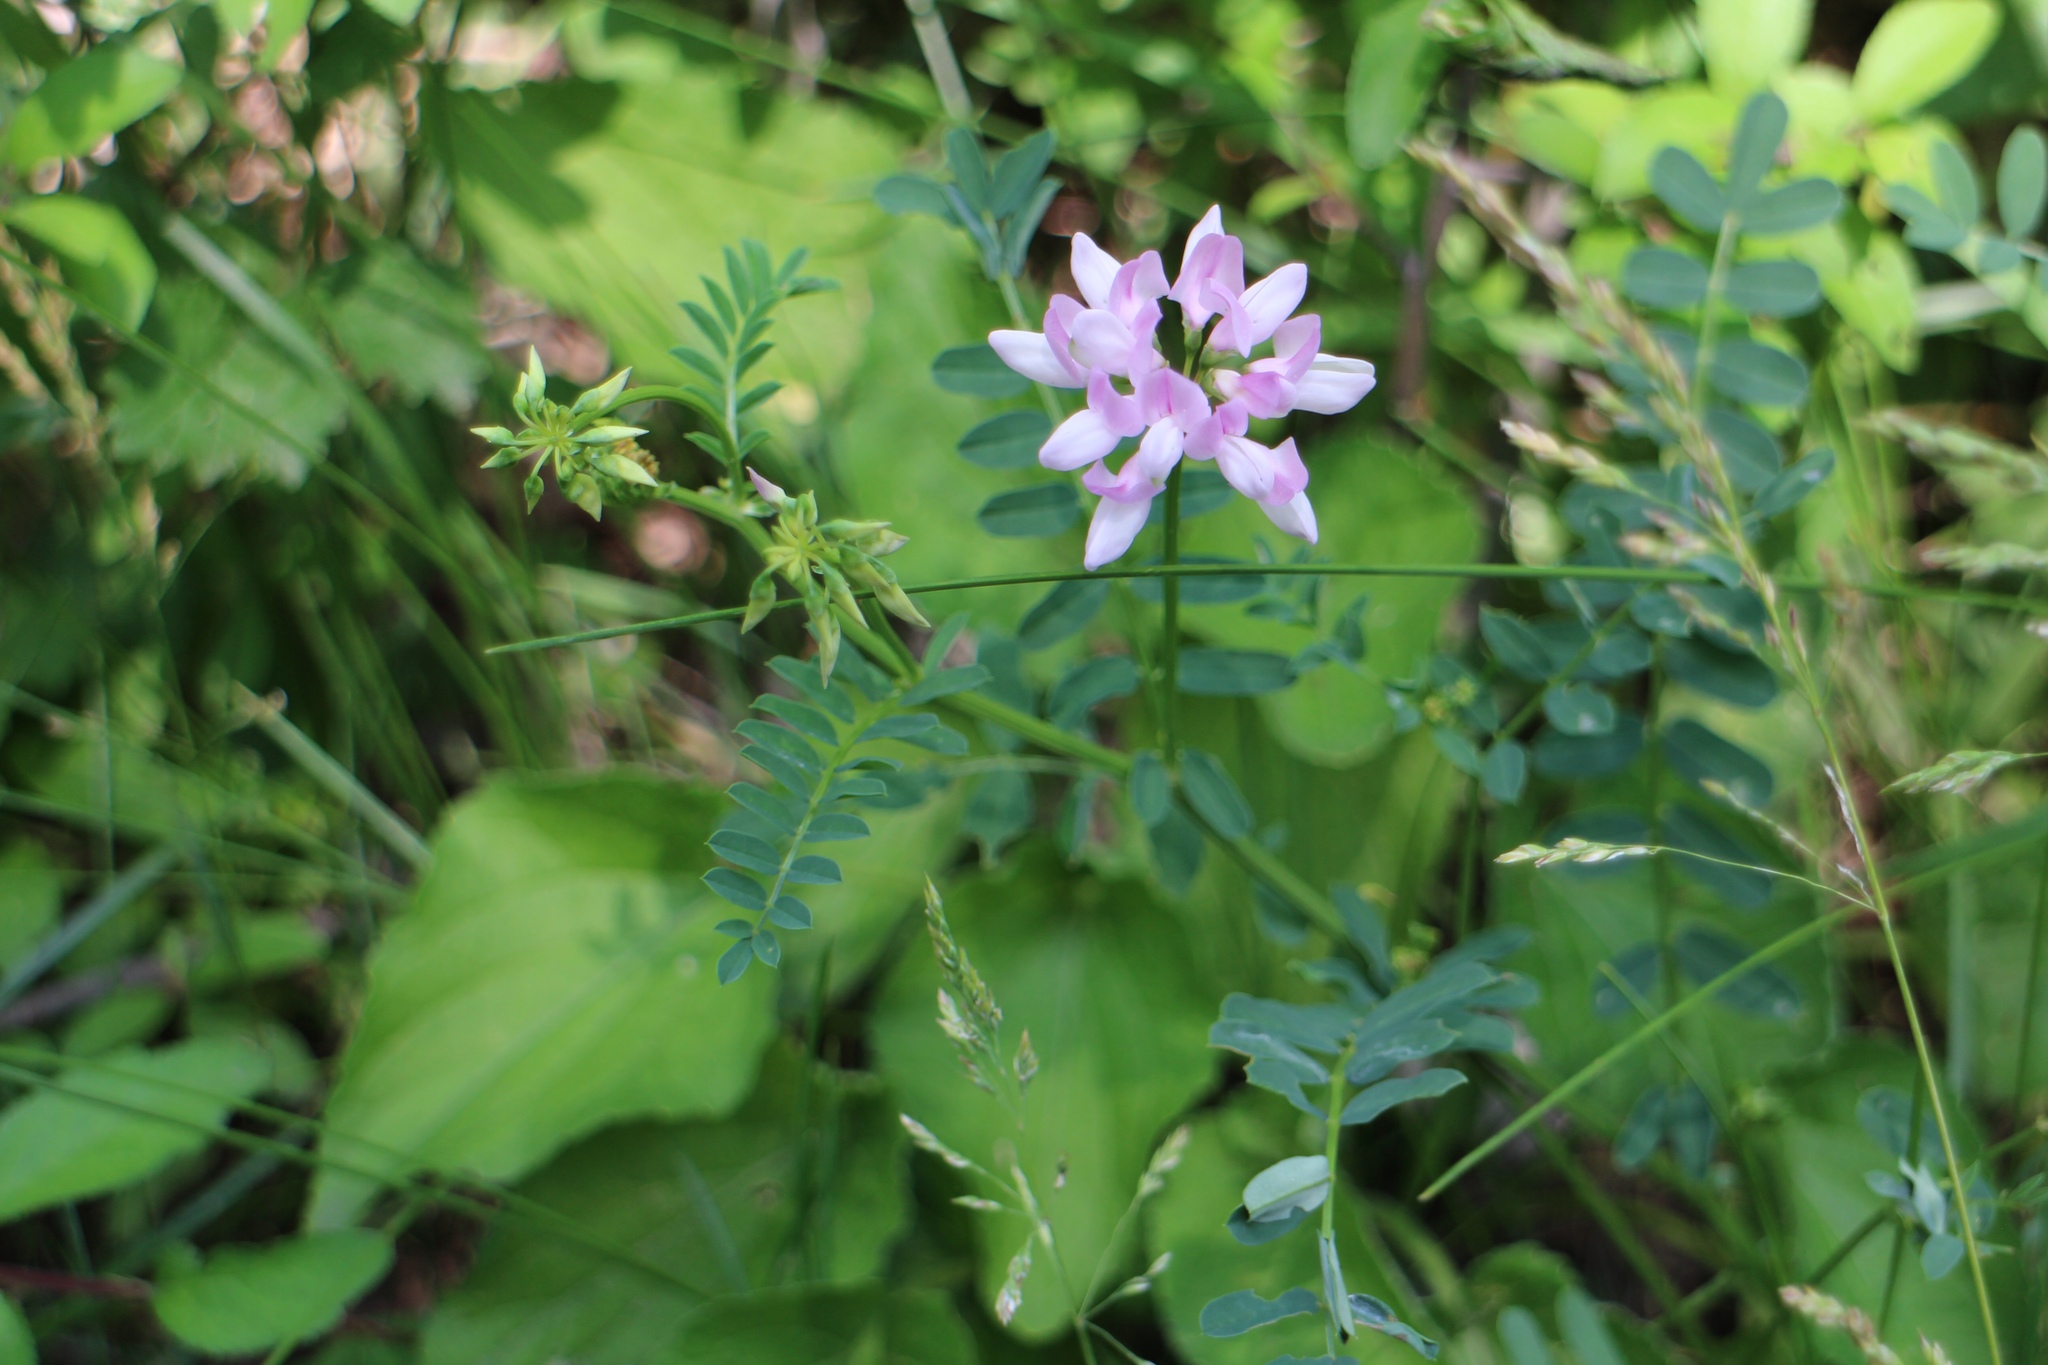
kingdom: Plantae
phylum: Tracheophyta
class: Magnoliopsida
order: Fabales
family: Fabaceae
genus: Coronilla
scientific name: Coronilla varia
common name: Crownvetch
